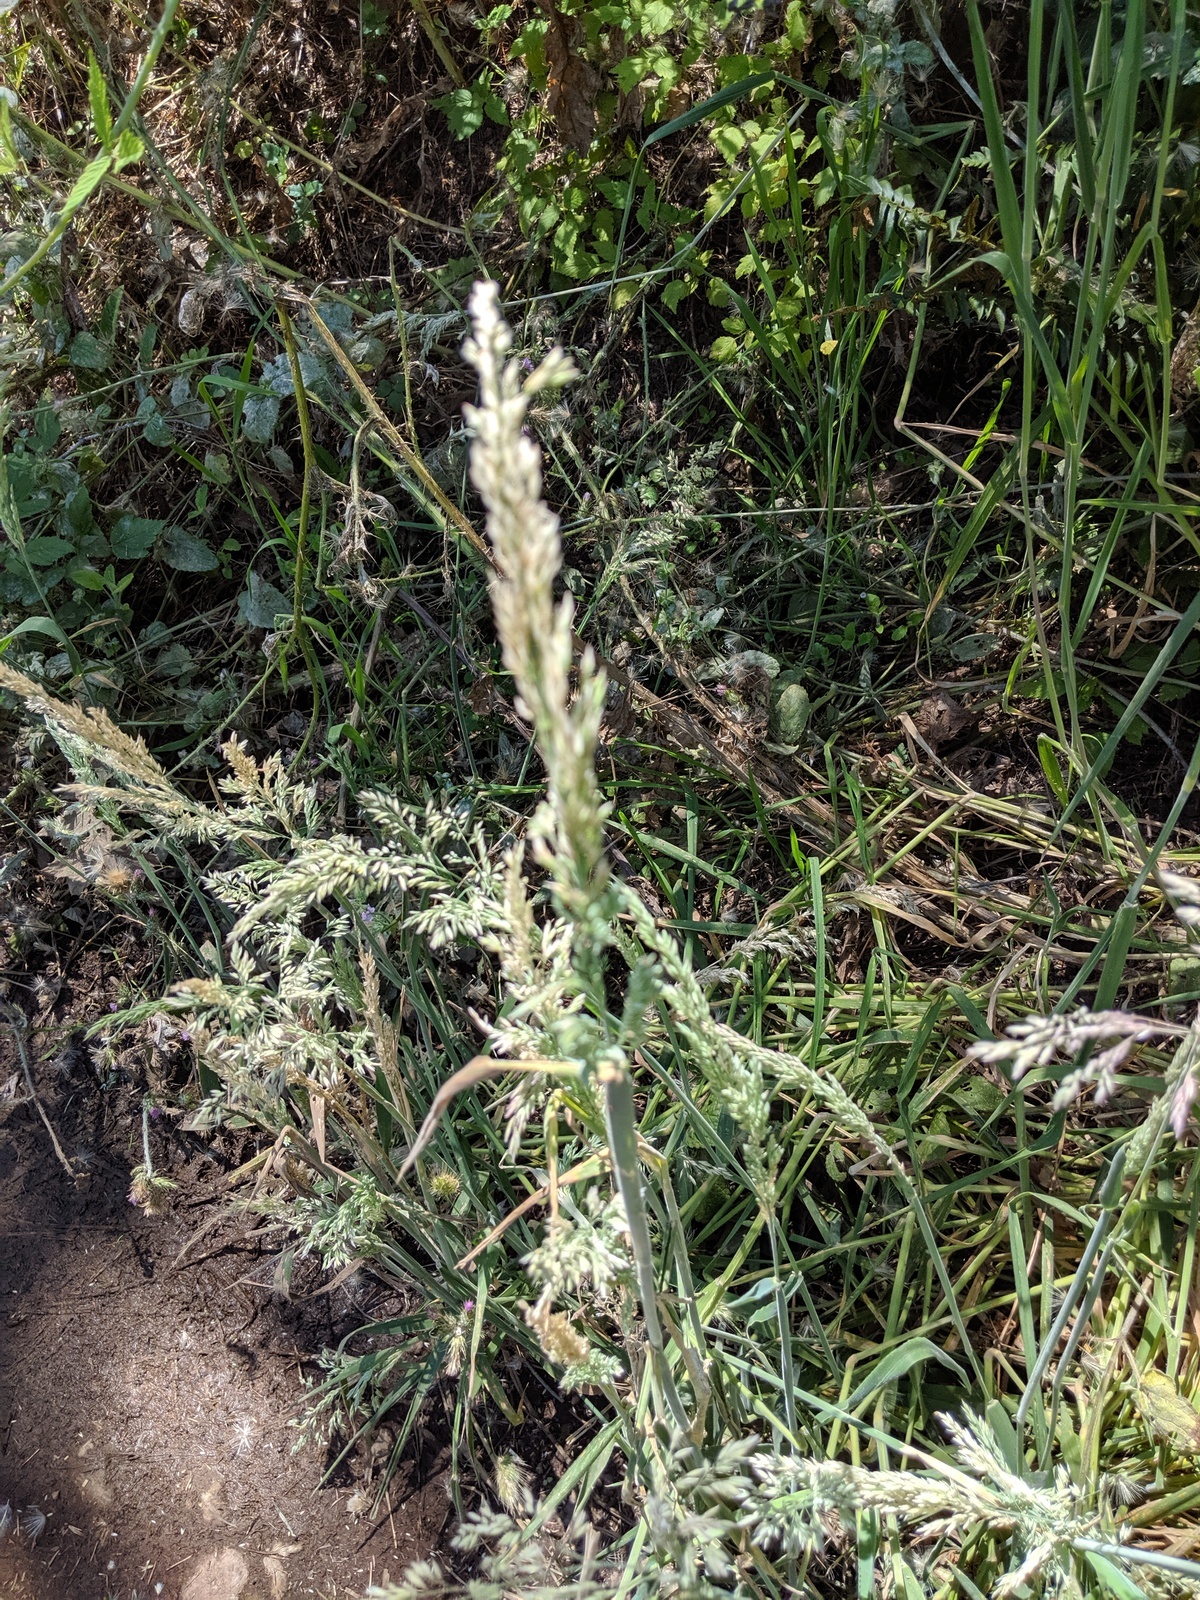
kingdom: Plantae
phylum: Tracheophyta
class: Liliopsida
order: Poales
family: Poaceae
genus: Holcus
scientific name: Holcus lanatus
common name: Yorkshire-fog
